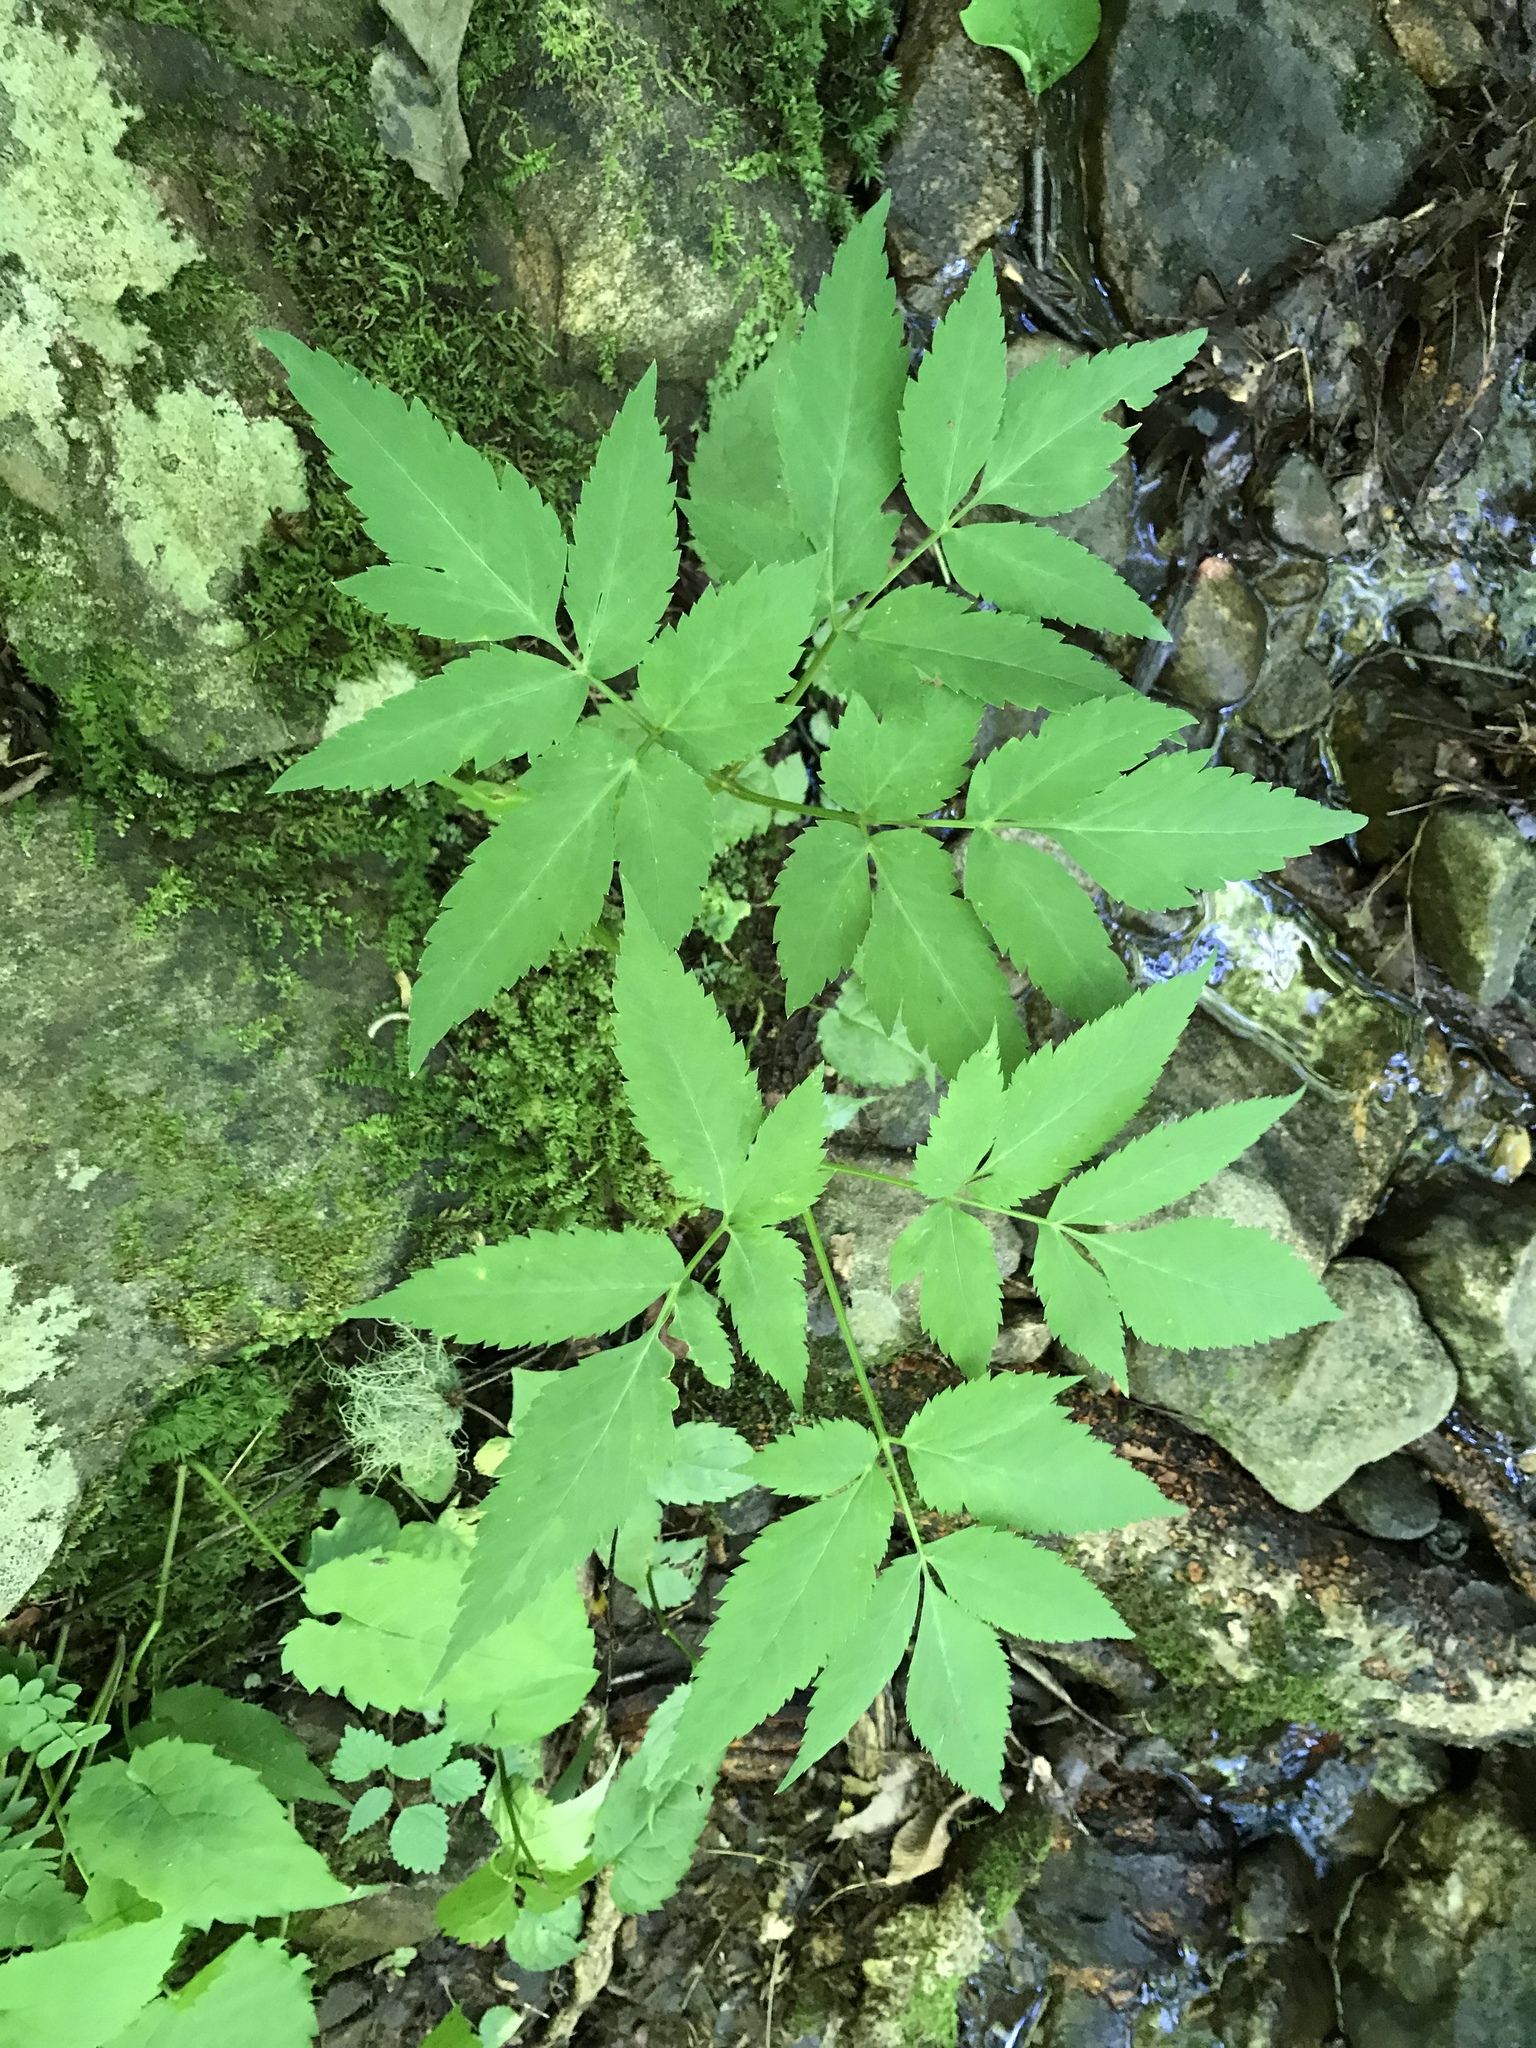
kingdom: Plantae
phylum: Tracheophyta
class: Magnoliopsida
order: Apiales
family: Apiaceae
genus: Angelica
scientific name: Angelica triquinata
